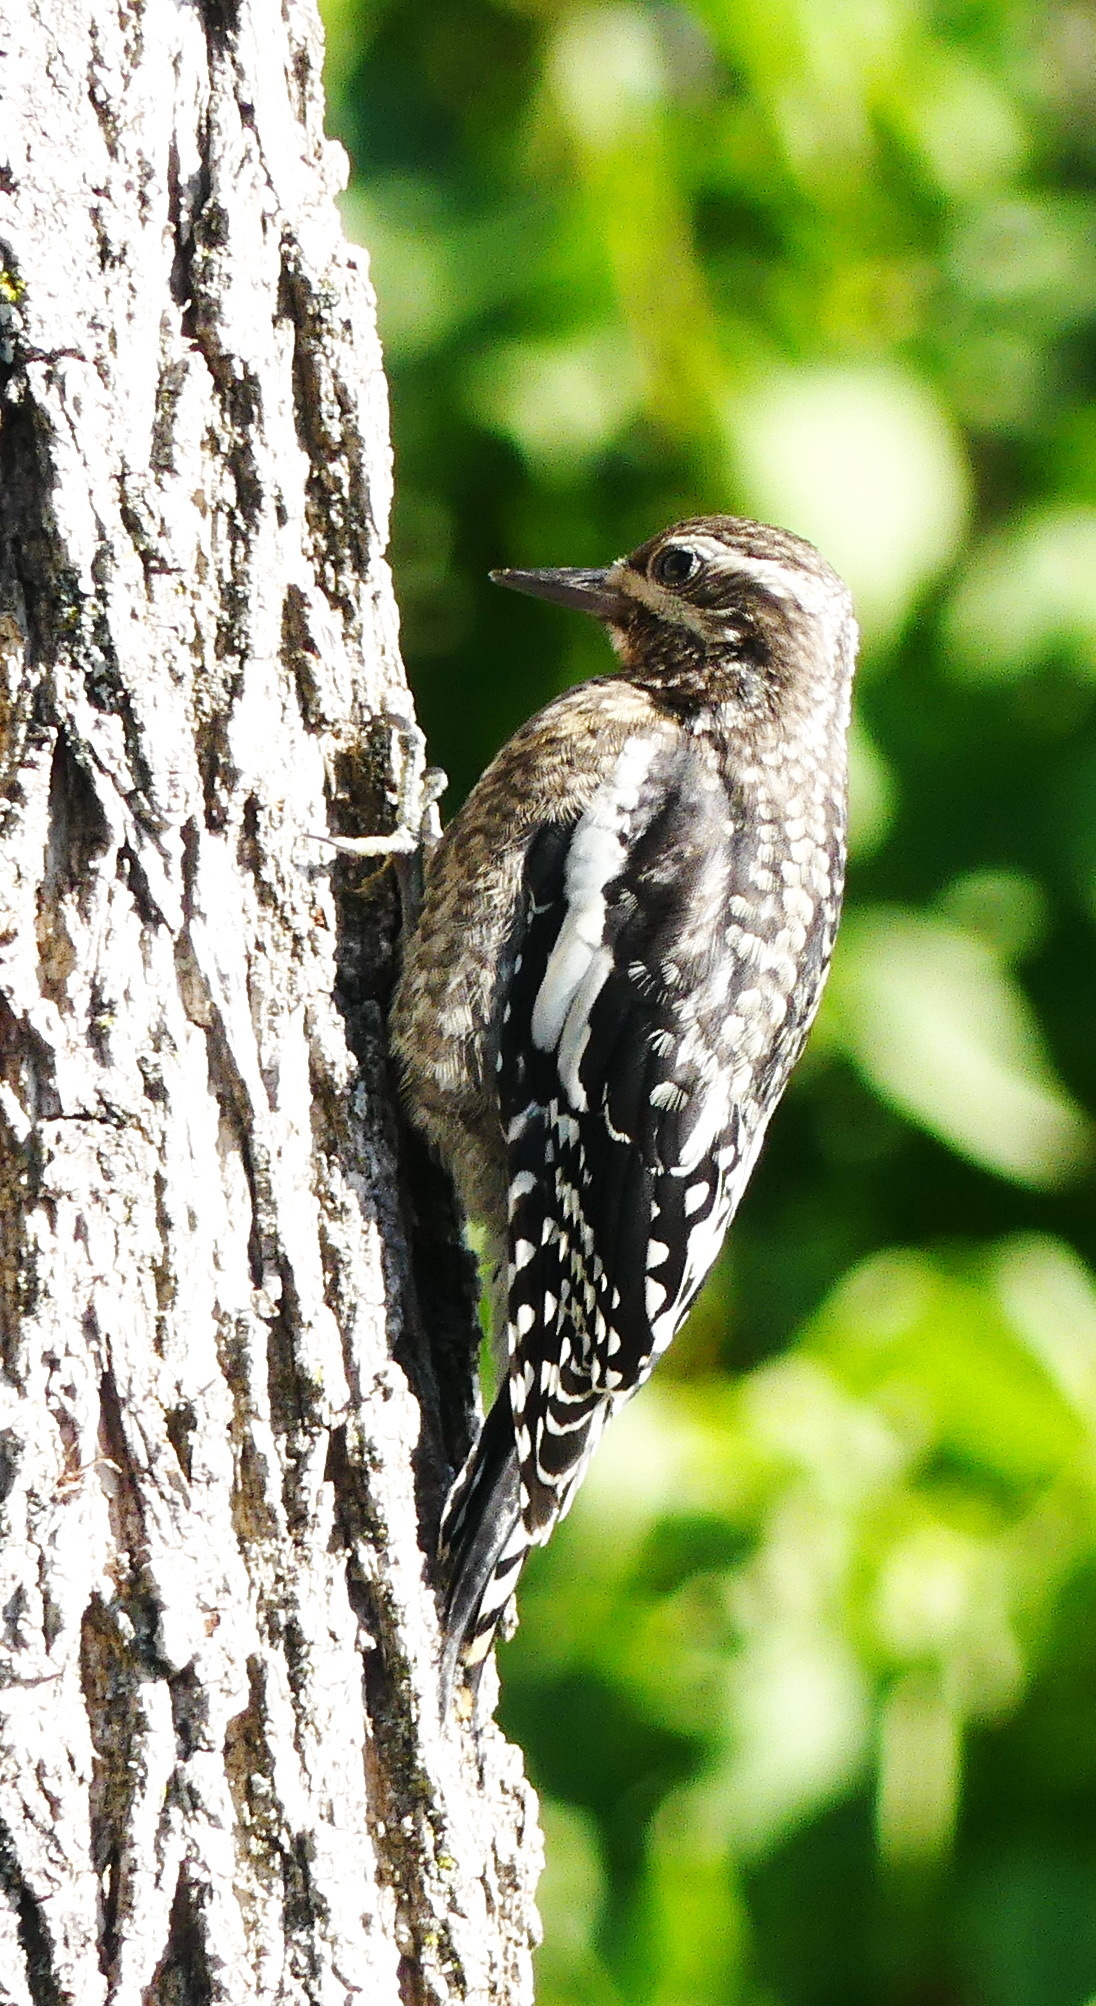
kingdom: Animalia
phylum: Chordata
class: Aves
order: Piciformes
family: Picidae
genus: Sphyrapicus
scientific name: Sphyrapicus varius
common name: Yellow-bellied sapsucker
